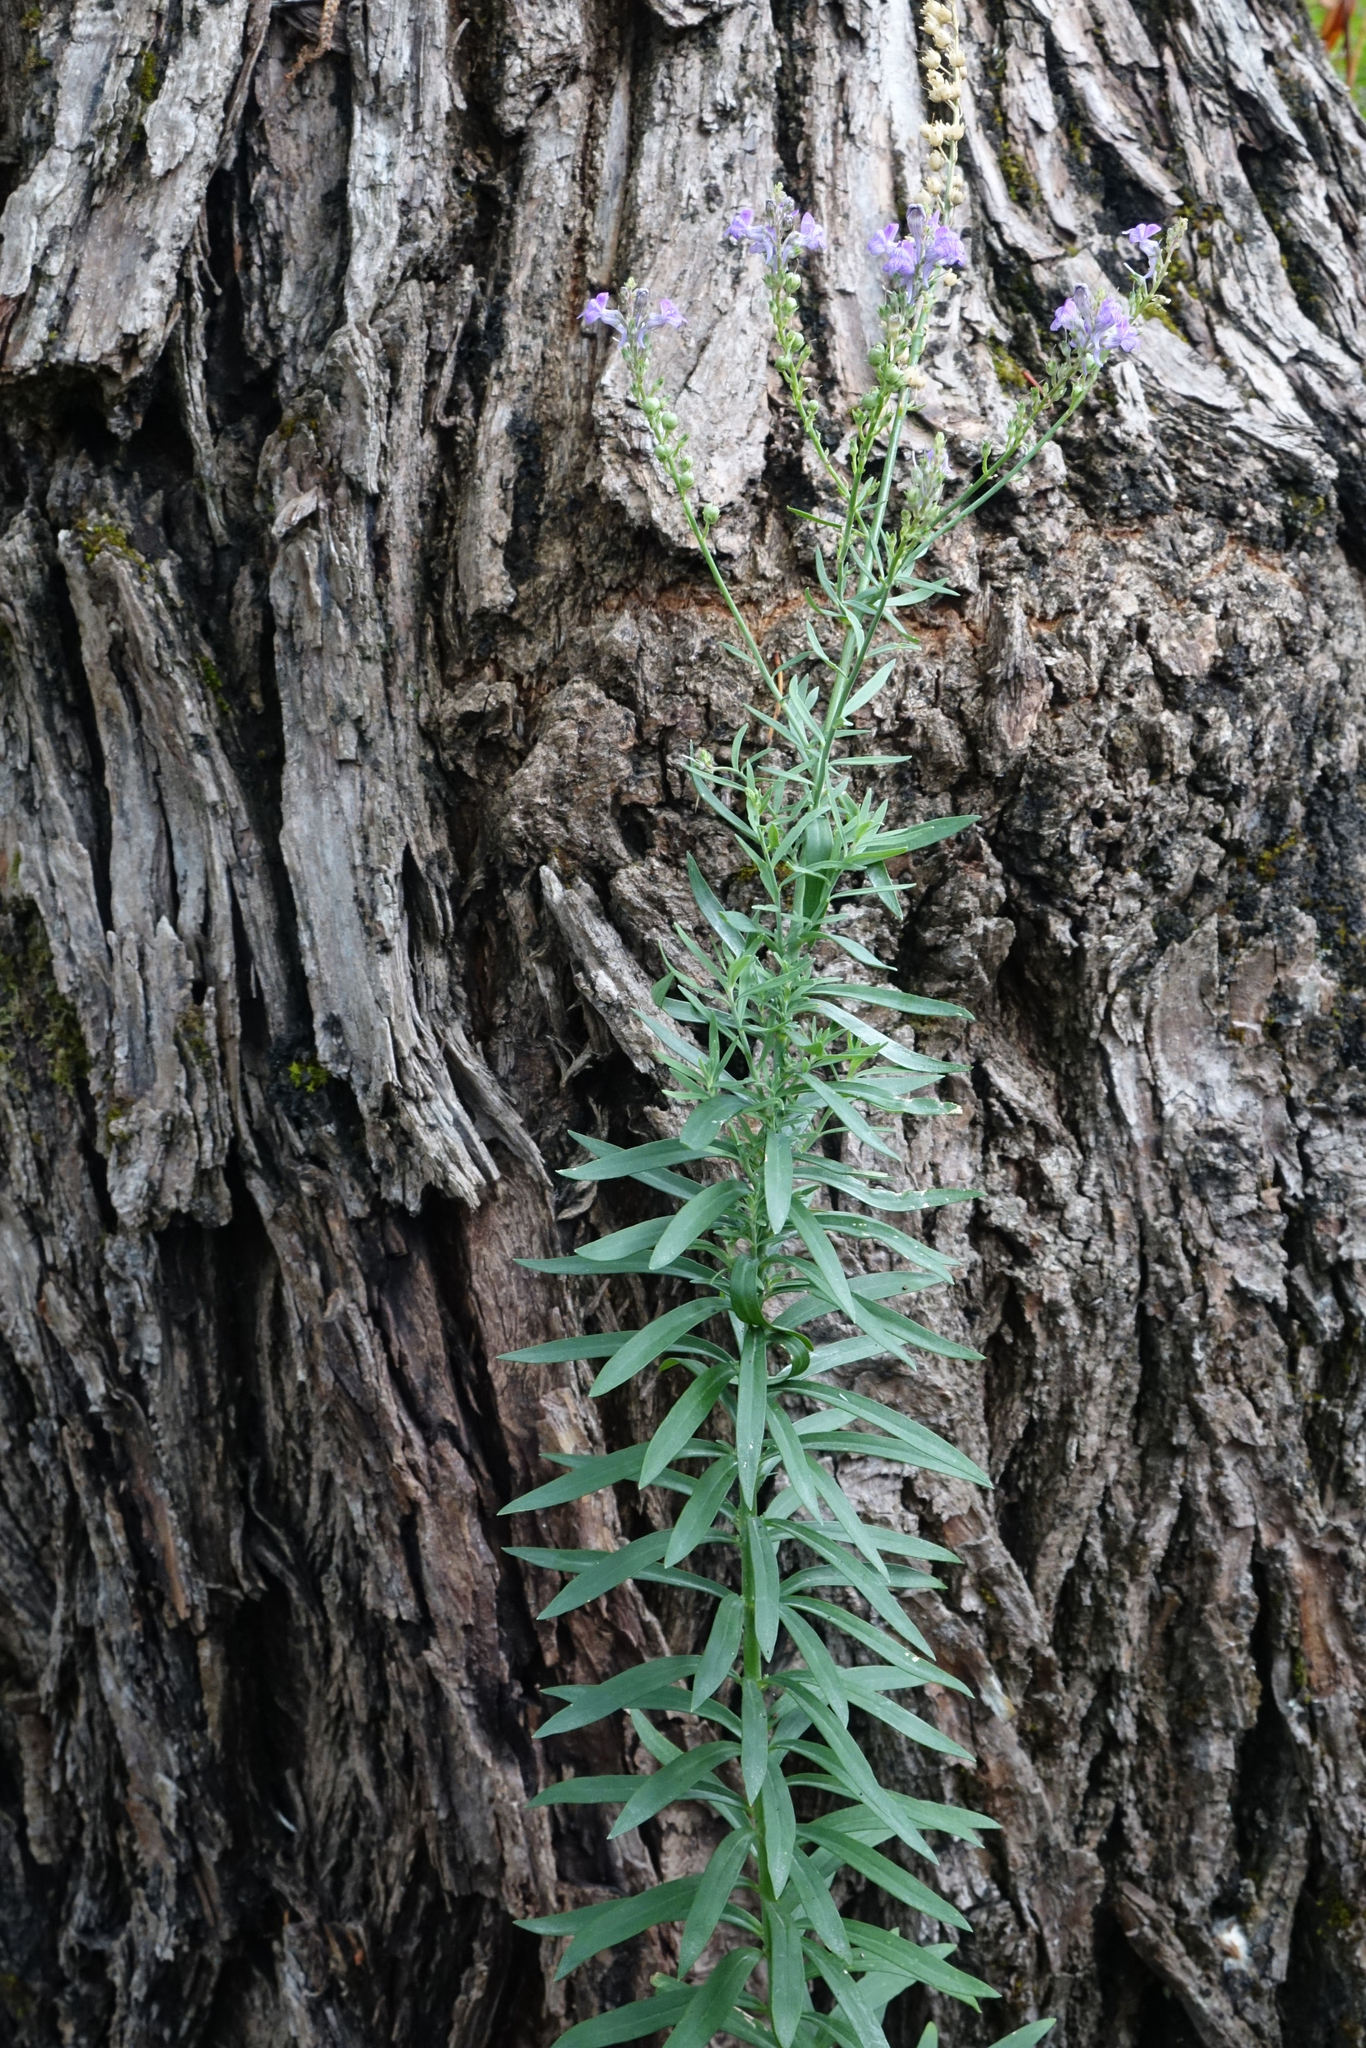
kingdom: Plantae
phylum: Tracheophyta
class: Magnoliopsida
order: Lamiales
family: Plantaginaceae
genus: Linaria
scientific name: Linaria purpurea
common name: Purple toadflax
